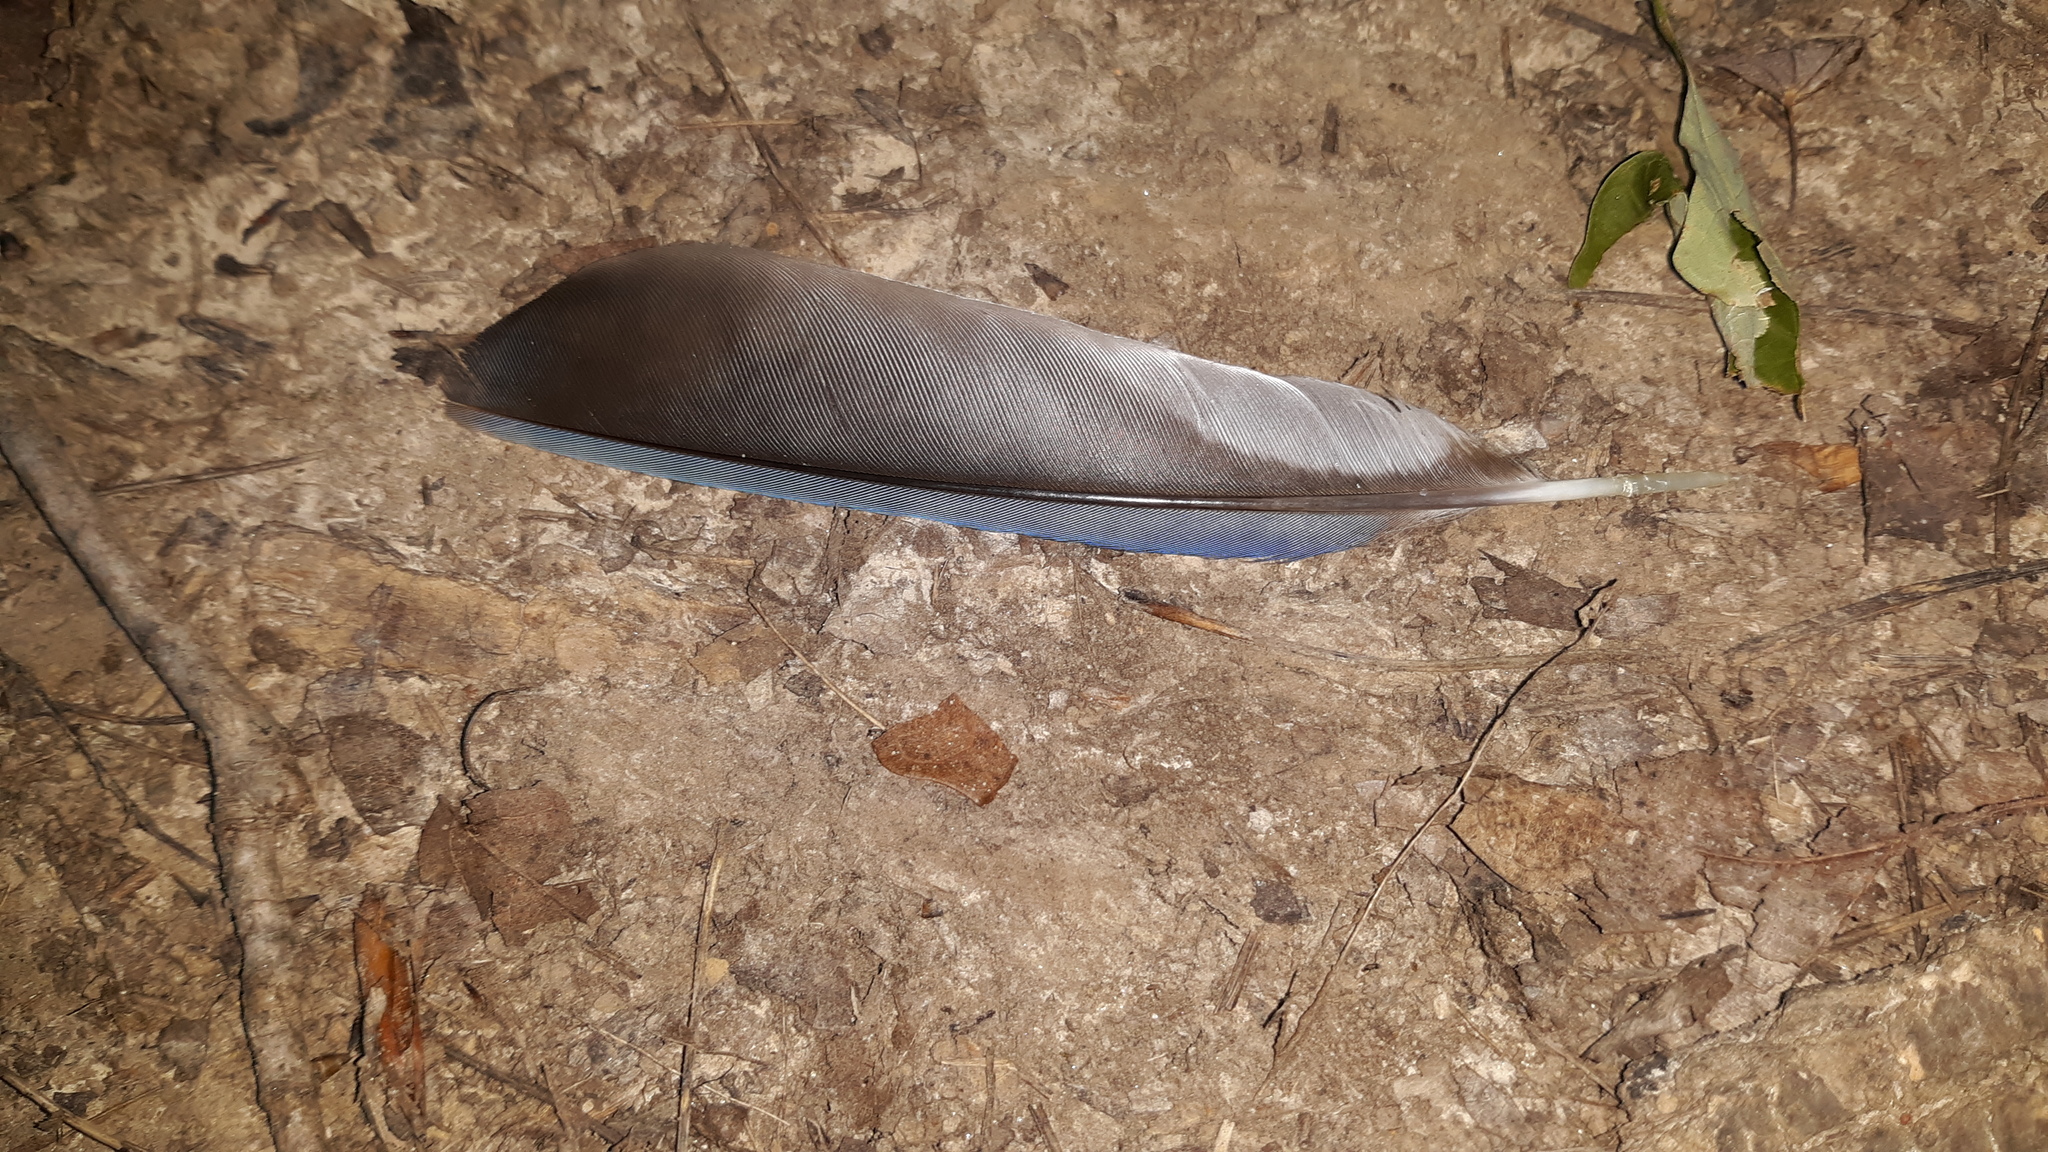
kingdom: Animalia
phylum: Chordata
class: Aves
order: Passeriformes
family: Corvidae
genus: Cyanocitta
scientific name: Cyanocitta cristata
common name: Blue jay
